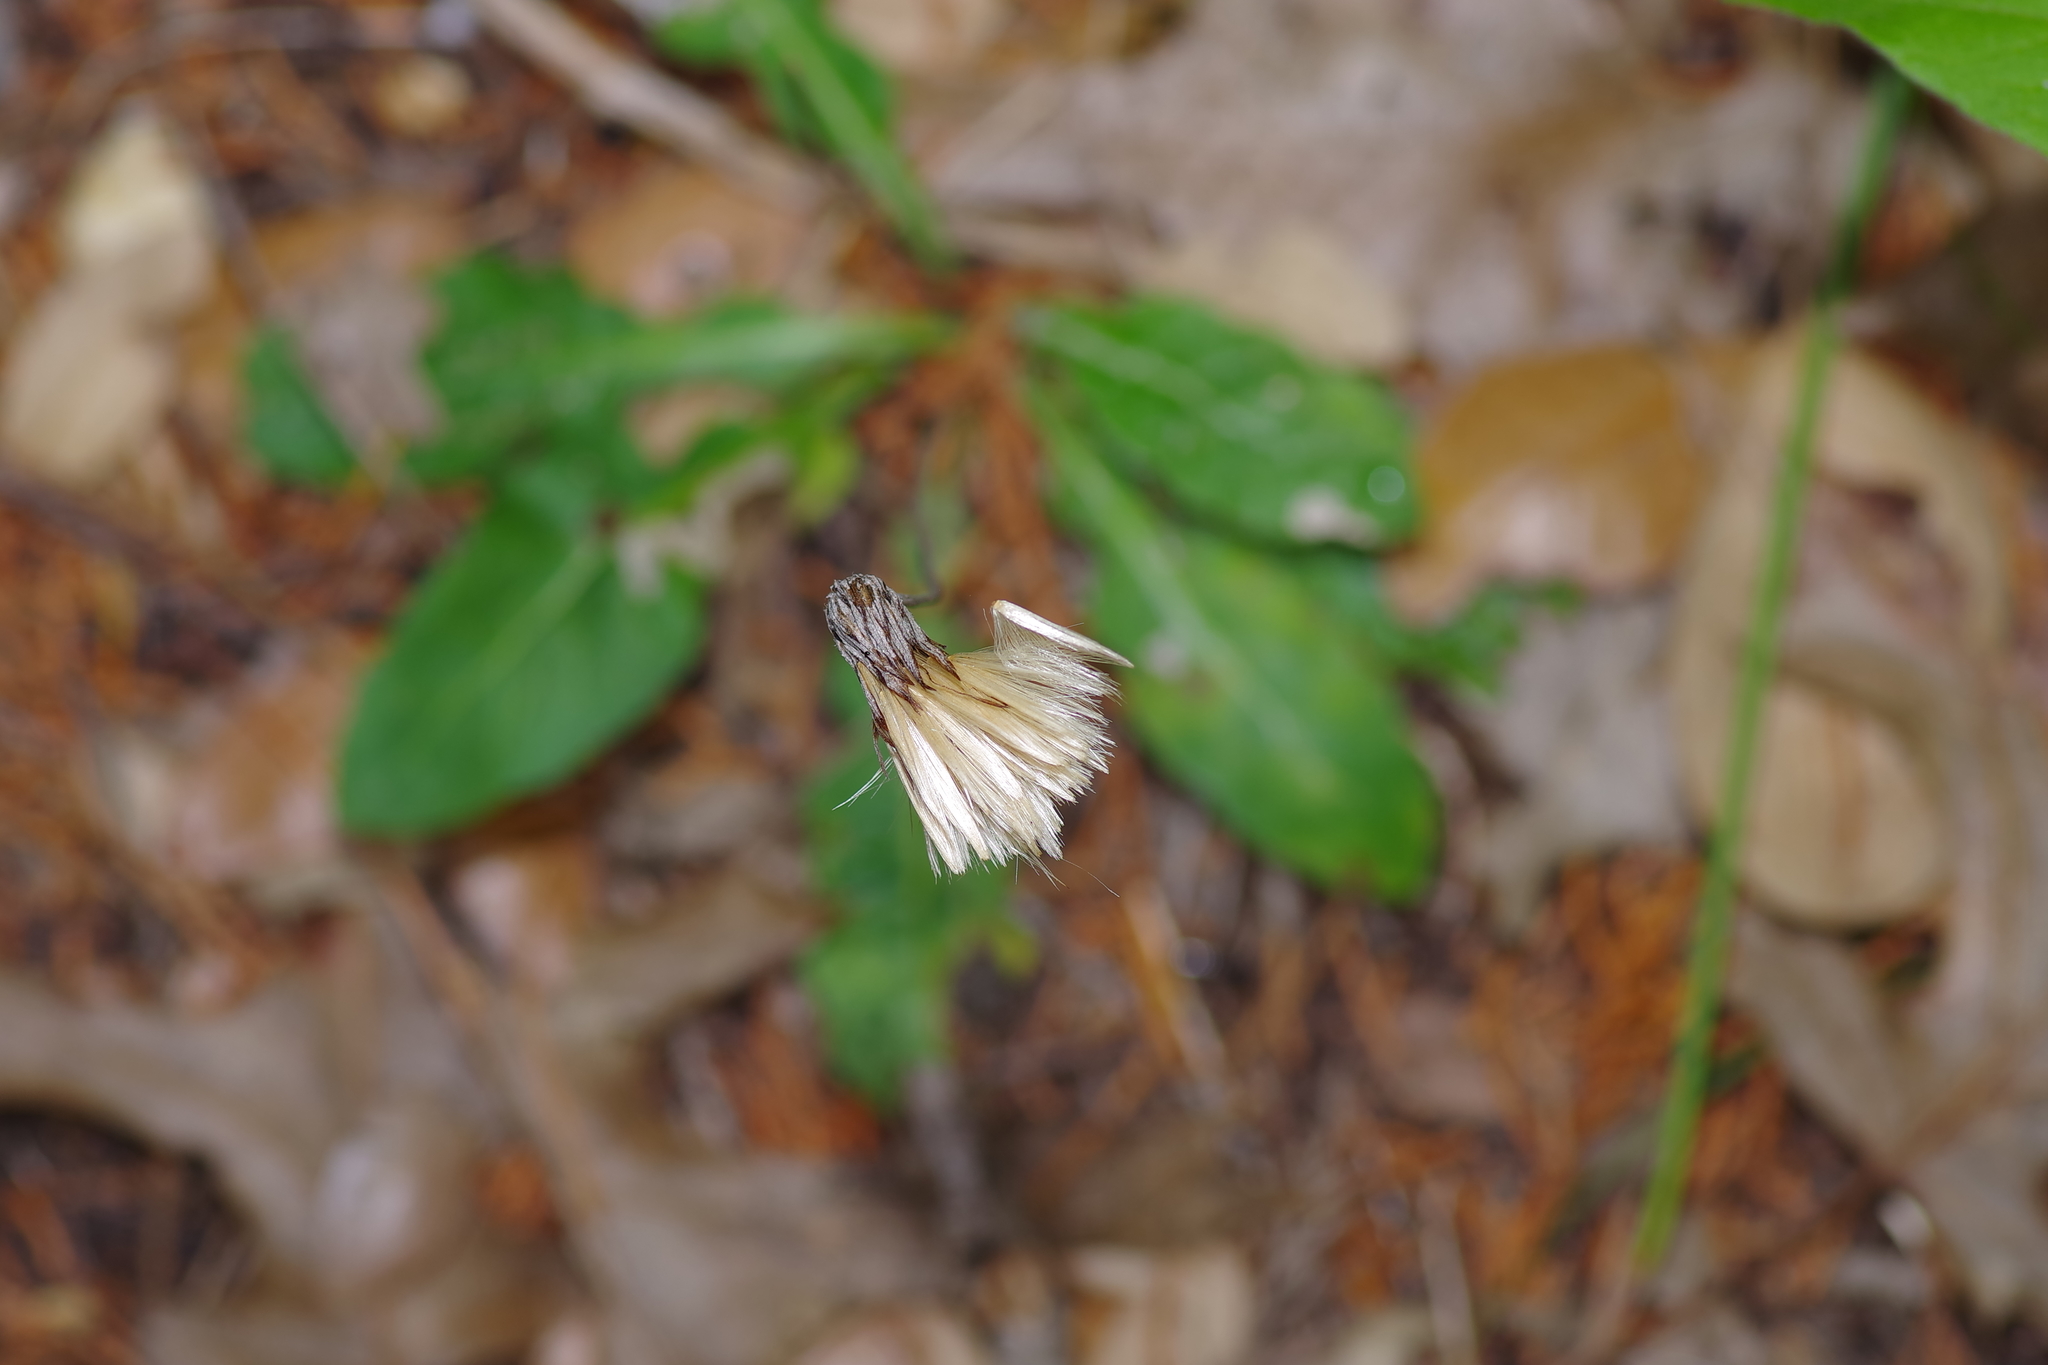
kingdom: Plantae
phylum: Tracheophyta
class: Magnoliopsida
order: Asterales
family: Asteraceae
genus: Chaptalia
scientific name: Chaptalia texana
